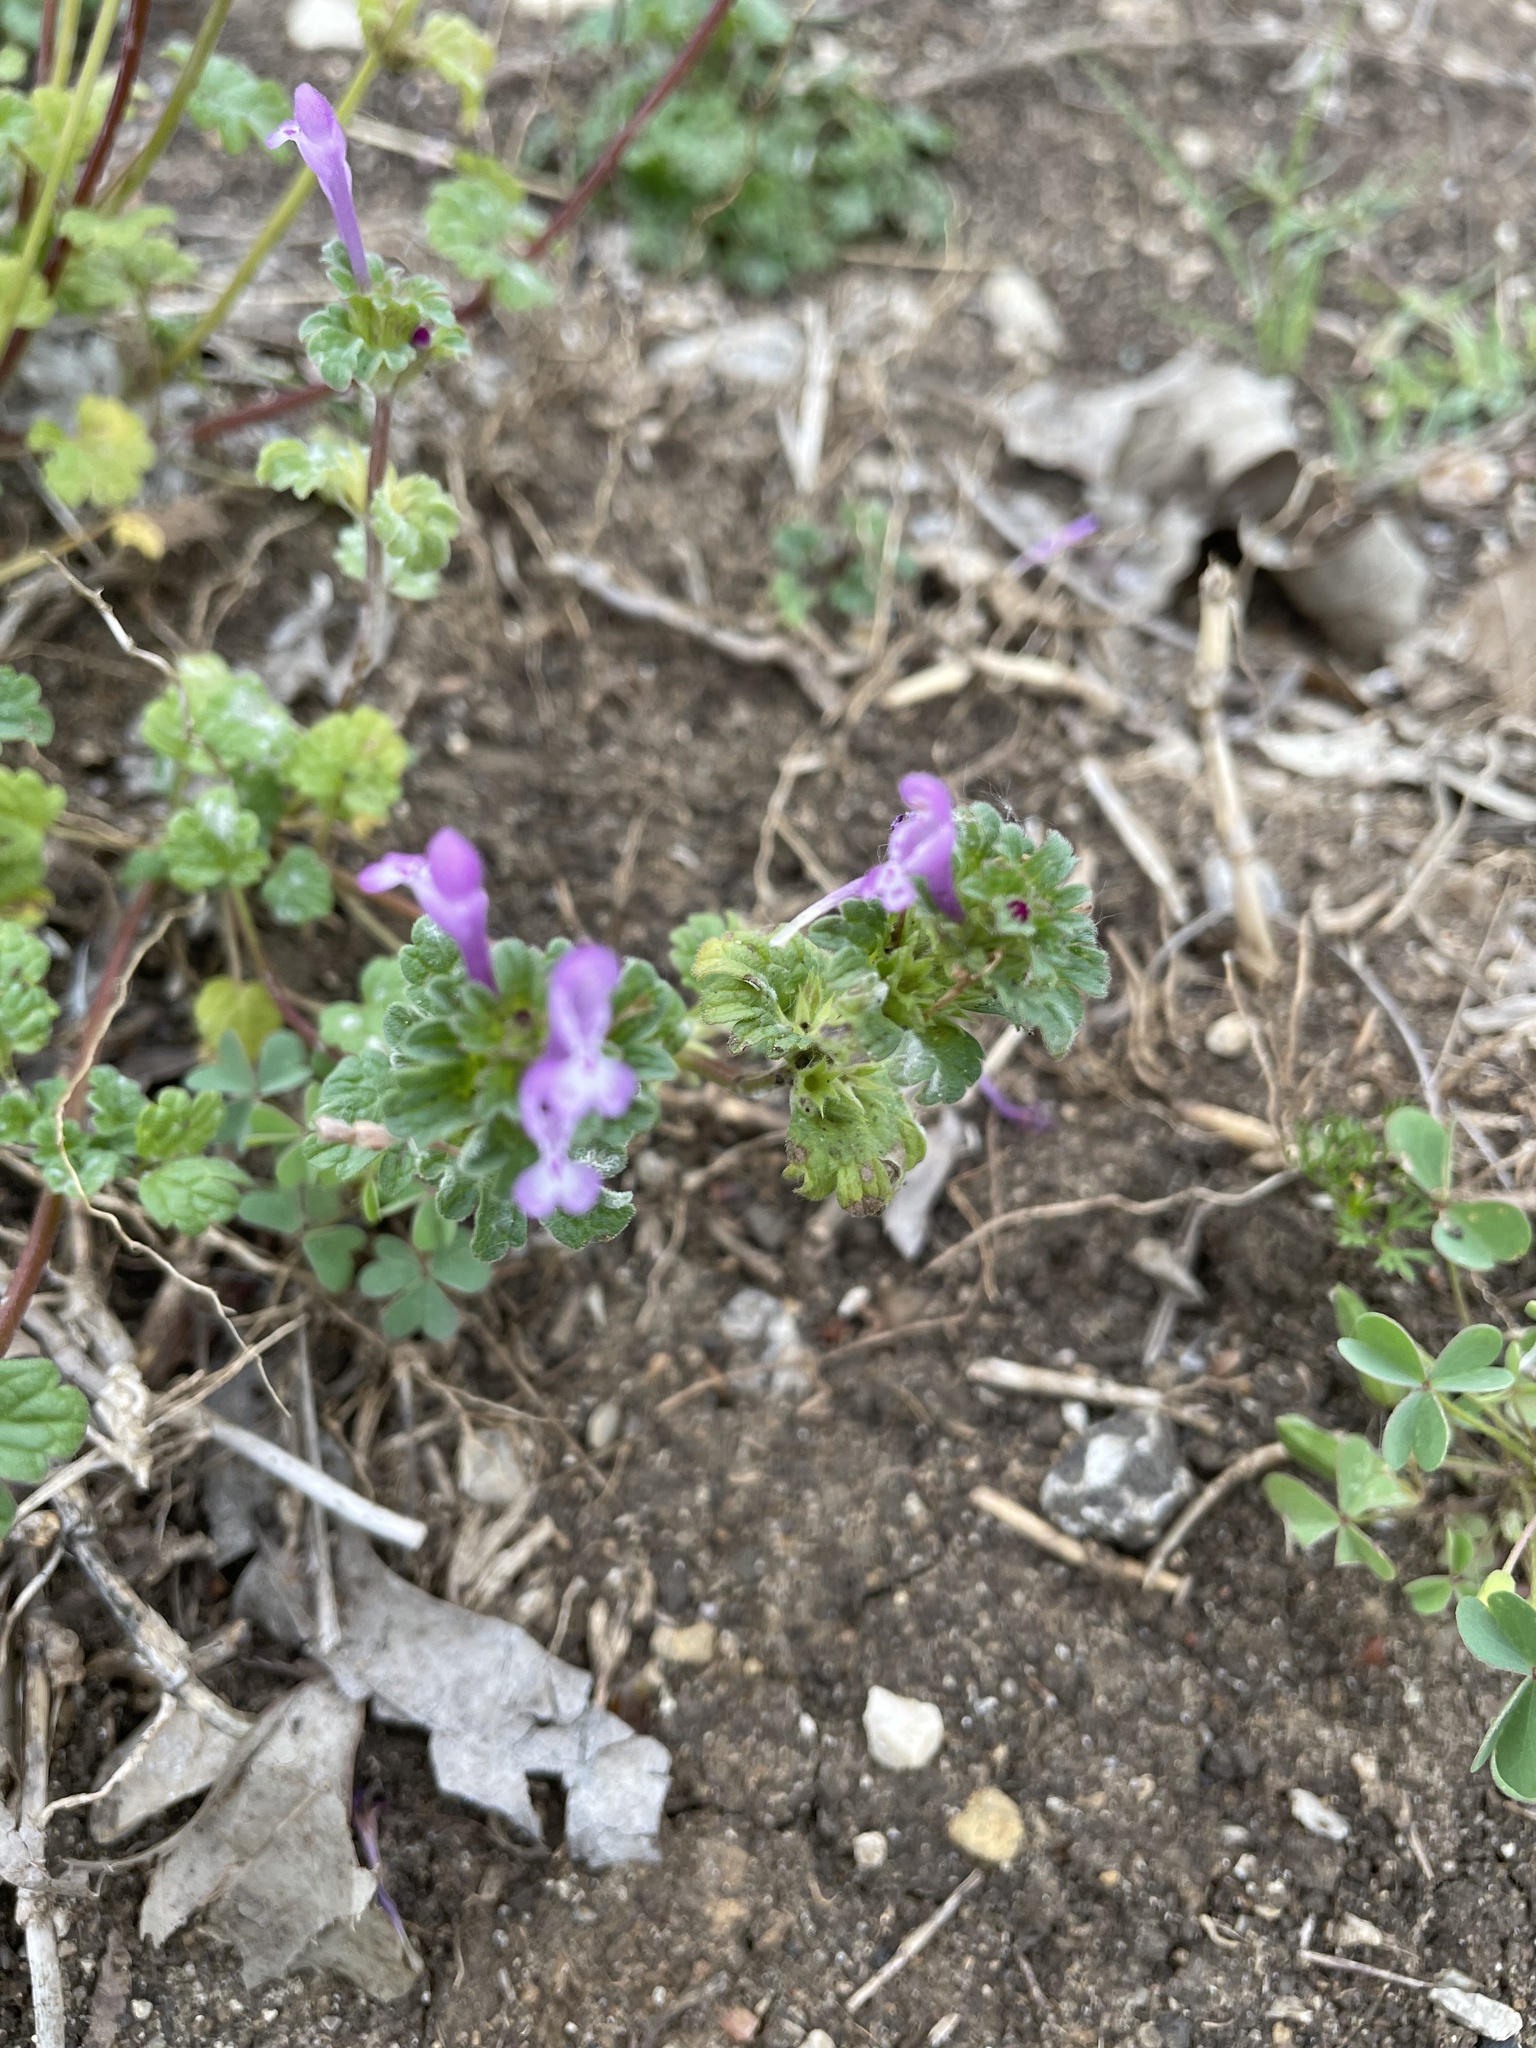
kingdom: Plantae
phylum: Tracheophyta
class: Magnoliopsida
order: Lamiales
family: Lamiaceae
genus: Lamium
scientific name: Lamium amplexicaule
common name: Henbit dead-nettle
